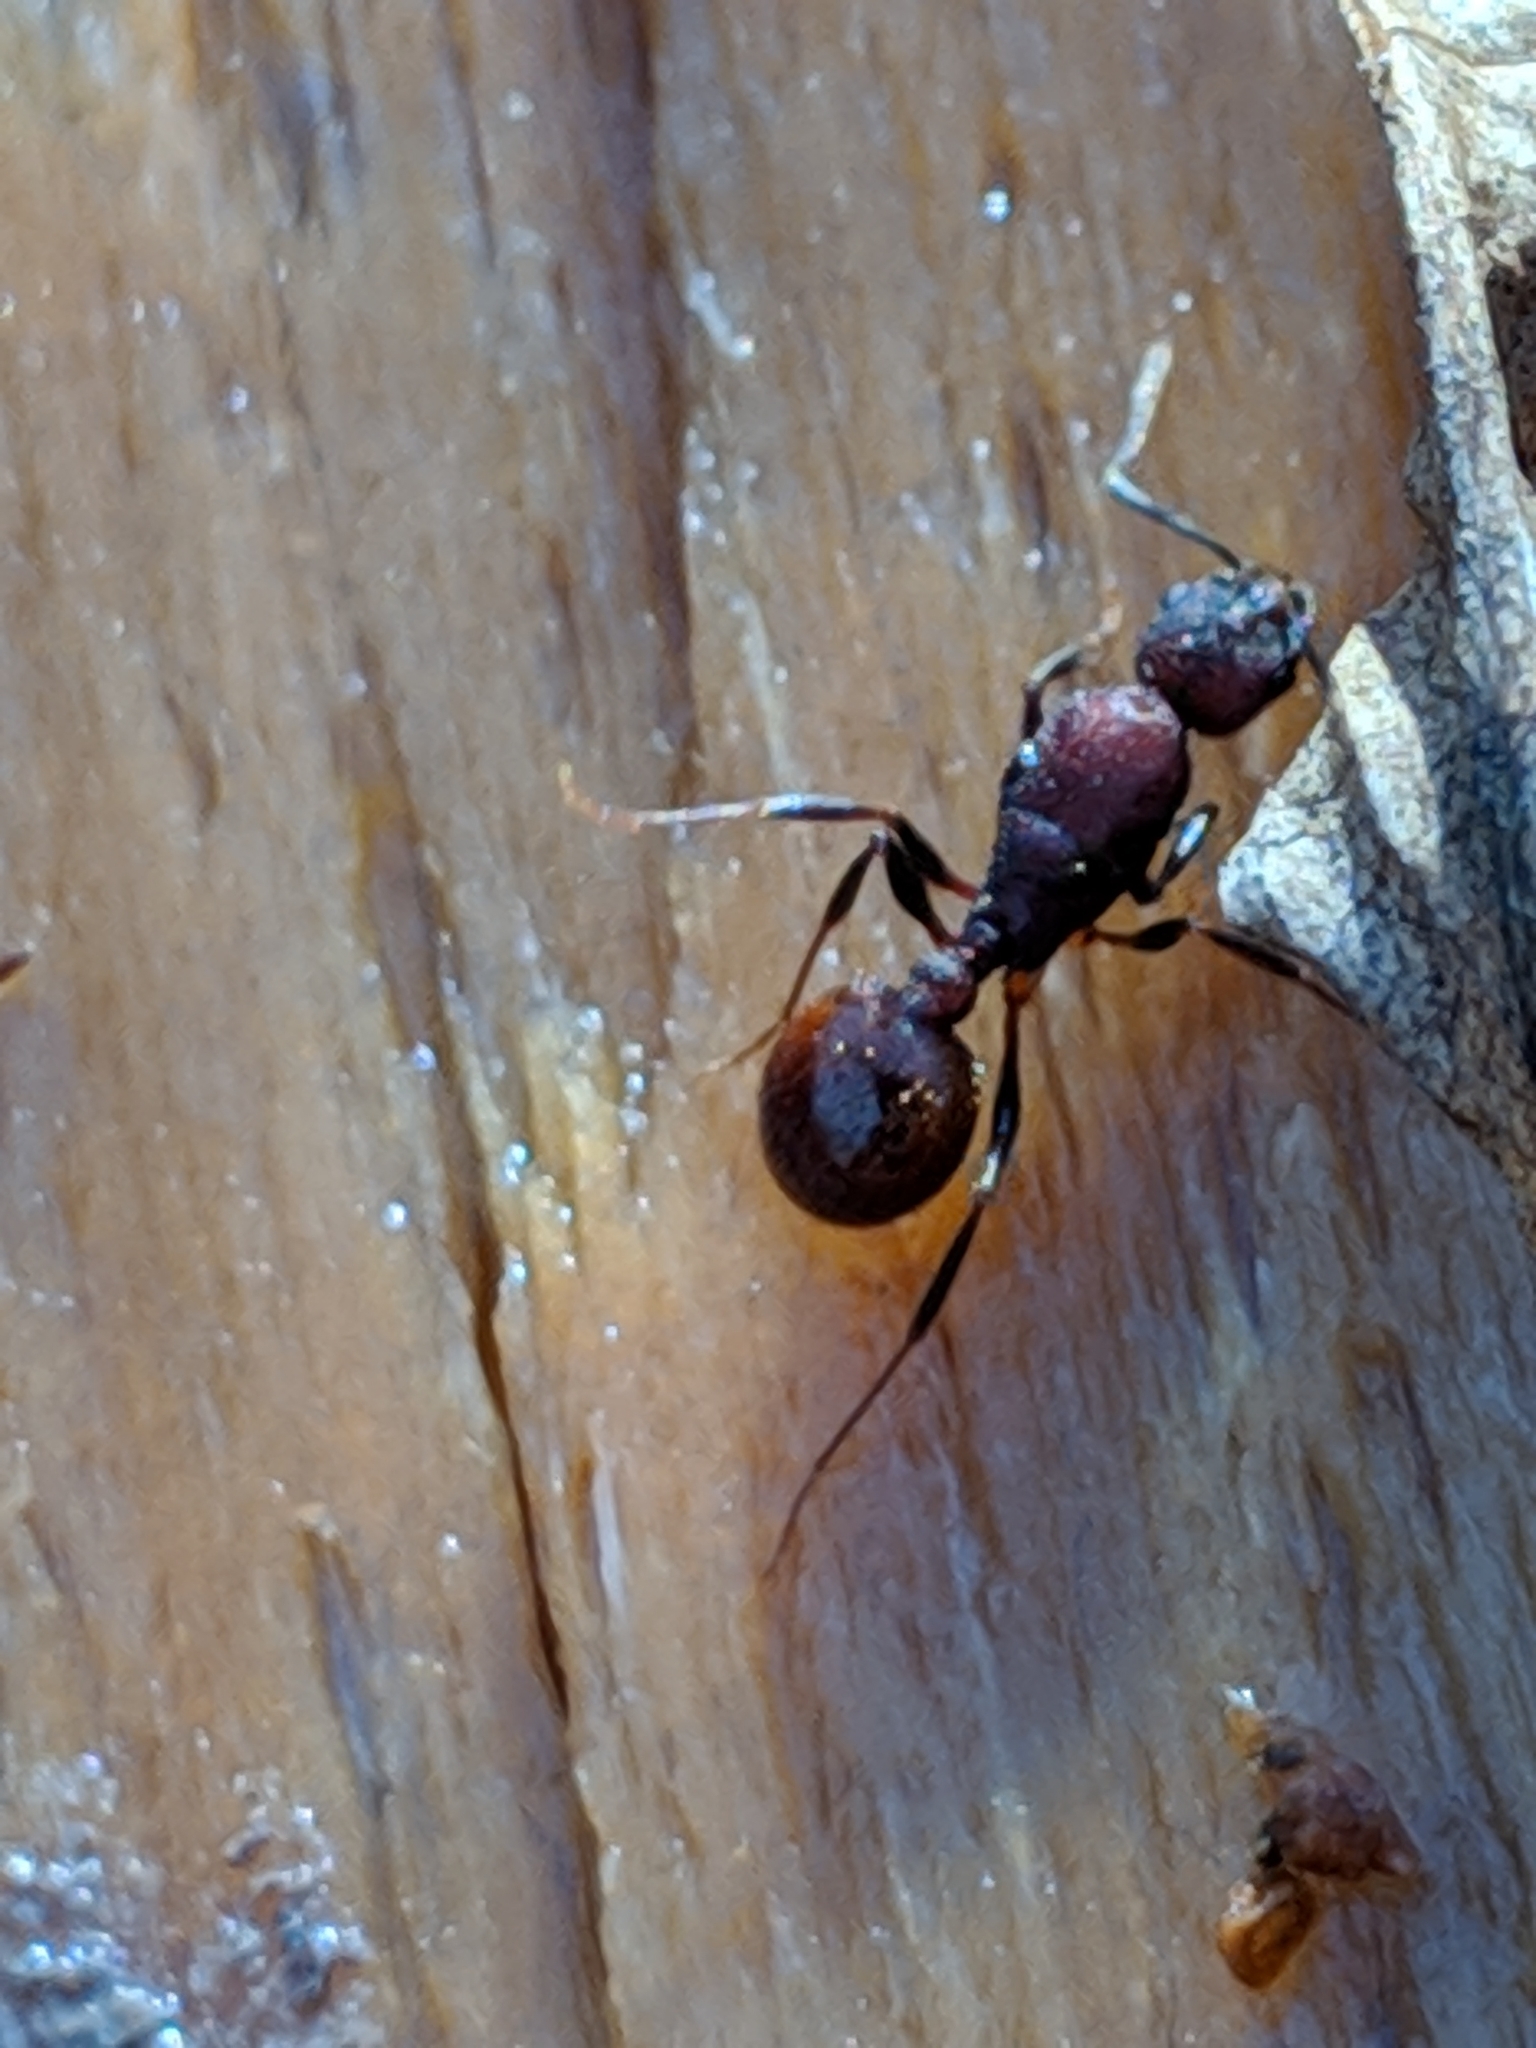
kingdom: Animalia
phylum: Arthropoda
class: Insecta
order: Hymenoptera
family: Formicidae
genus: Aphaenogaster
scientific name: Aphaenogaster fulva
